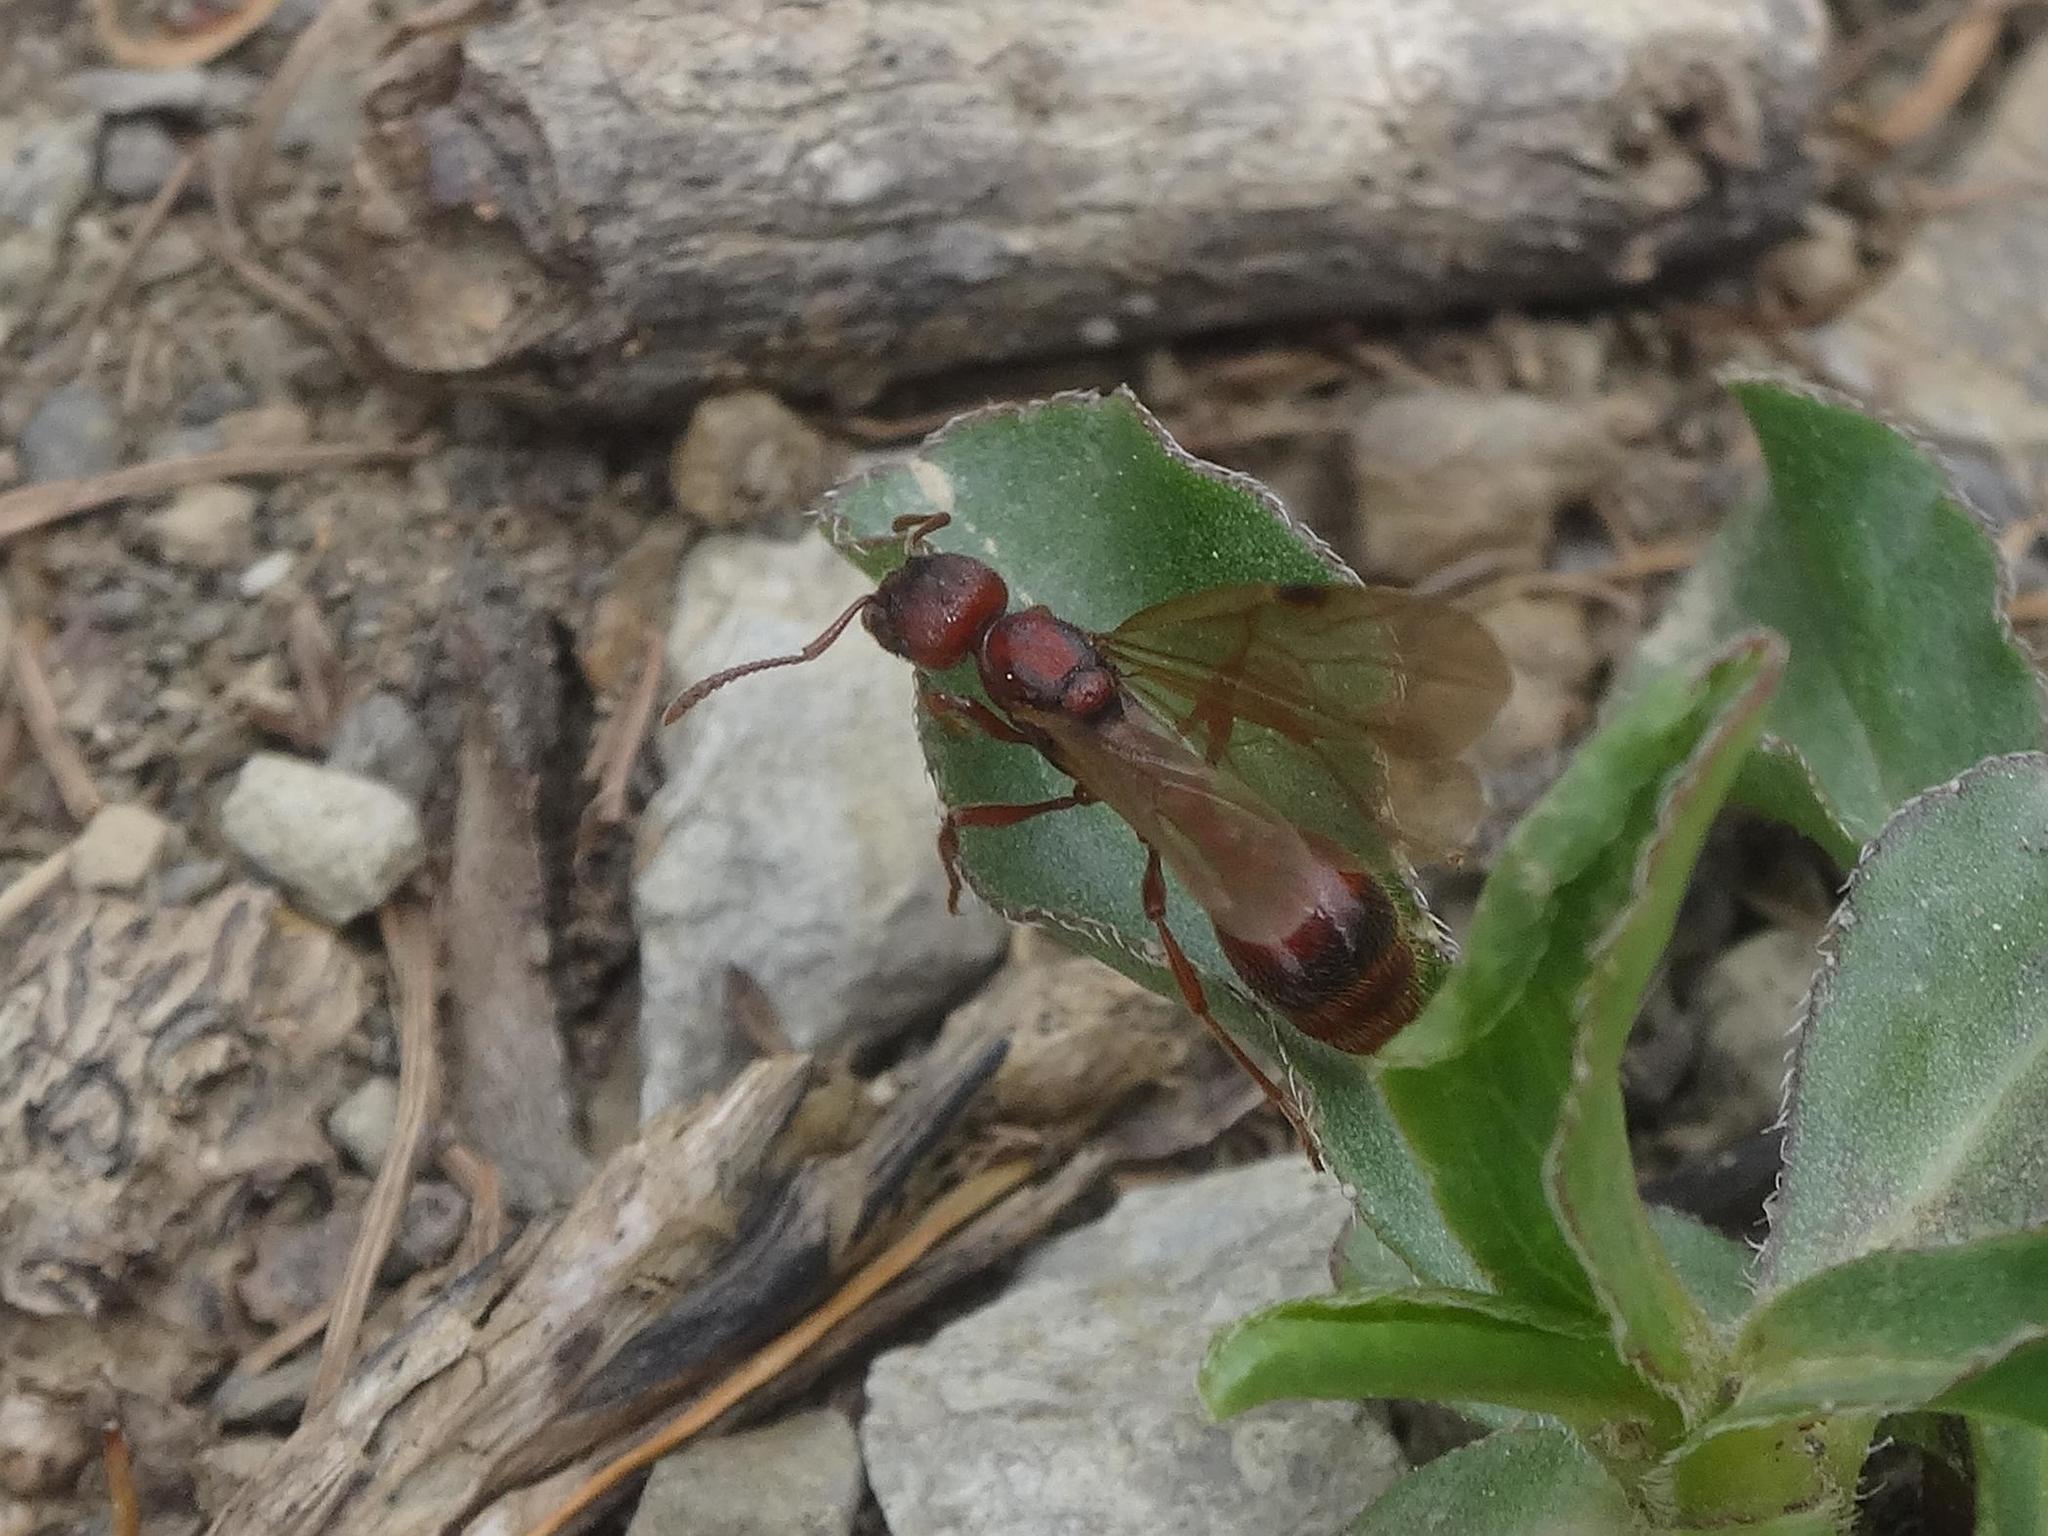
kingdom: Animalia
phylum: Arthropoda
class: Insecta
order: Hymenoptera
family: Formicidae
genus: Manica
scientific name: Manica rubida
